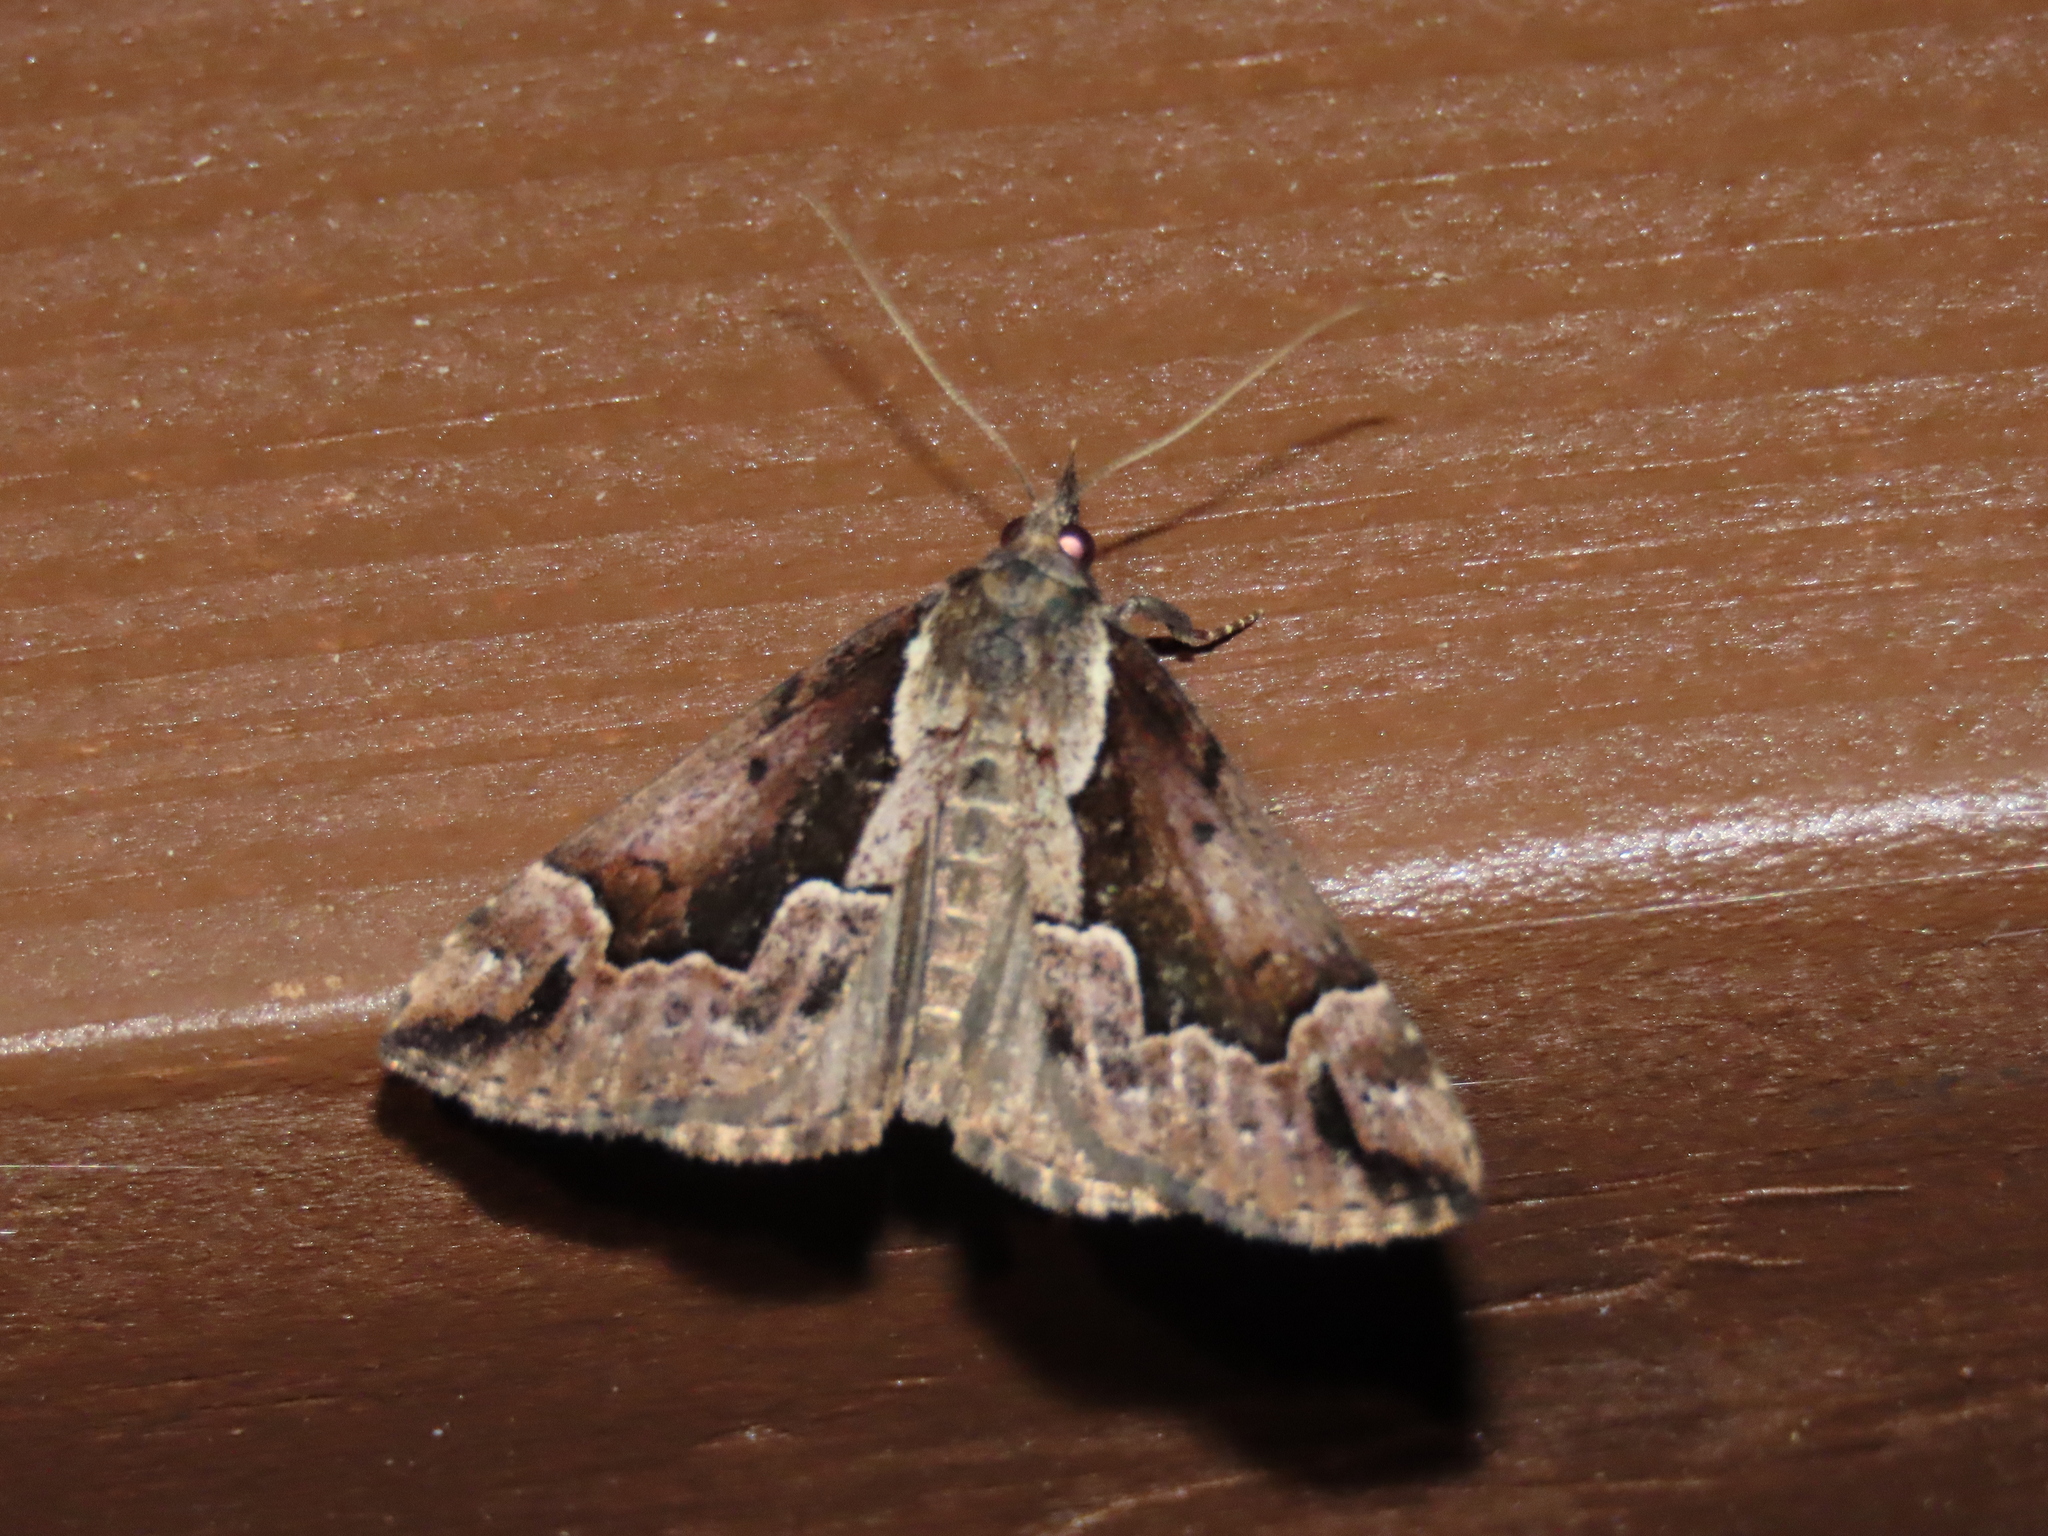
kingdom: Animalia
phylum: Arthropoda
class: Insecta
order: Lepidoptera
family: Erebidae
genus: Hypena
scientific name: Hypena baltimoralis
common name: Baltimore snout
